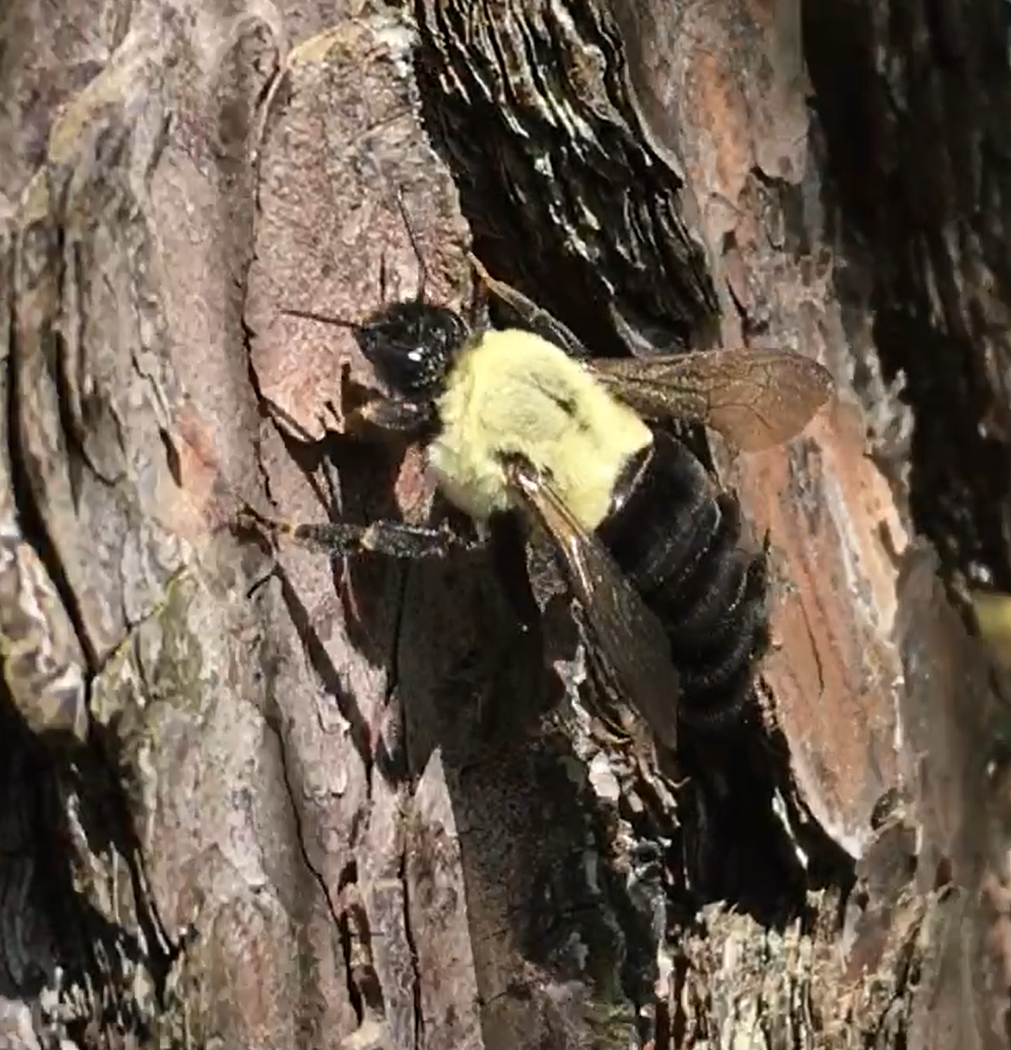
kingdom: Animalia
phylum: Arthropoda
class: Insecta
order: Hymenoptera
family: Apidae
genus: Bombus
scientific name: Bombus impatiens
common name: Common eastern bumble bee
